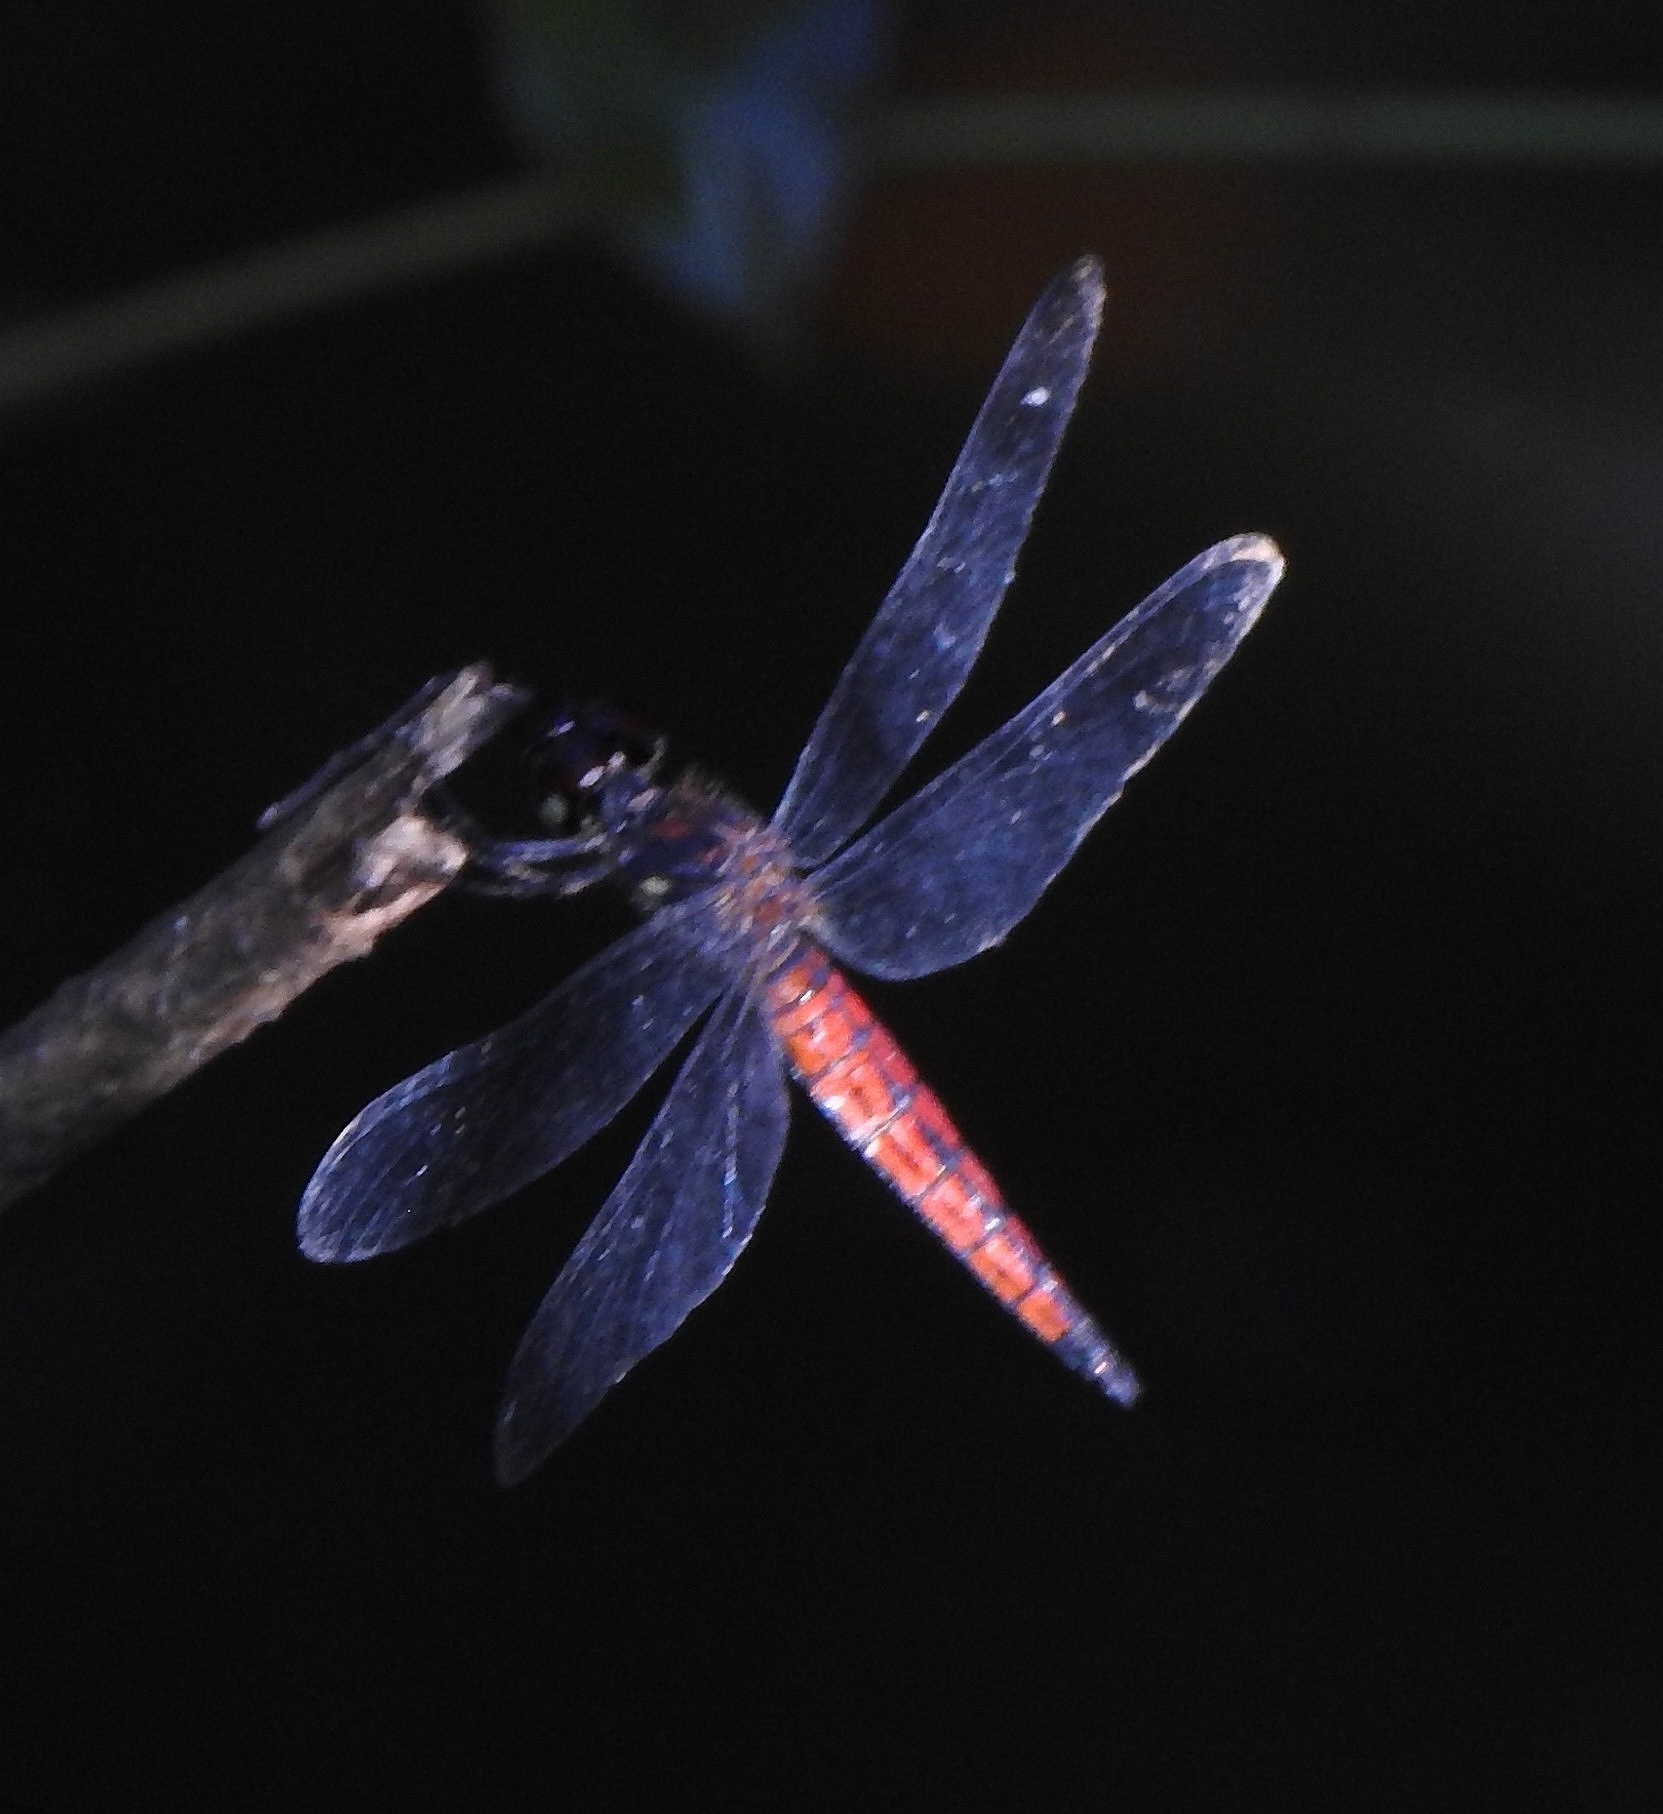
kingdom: Animalia
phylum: Arthropoda
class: Insecta
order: Odonata
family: Libellulidae
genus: Lyriothemis
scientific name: Lyriothemis acigastra
